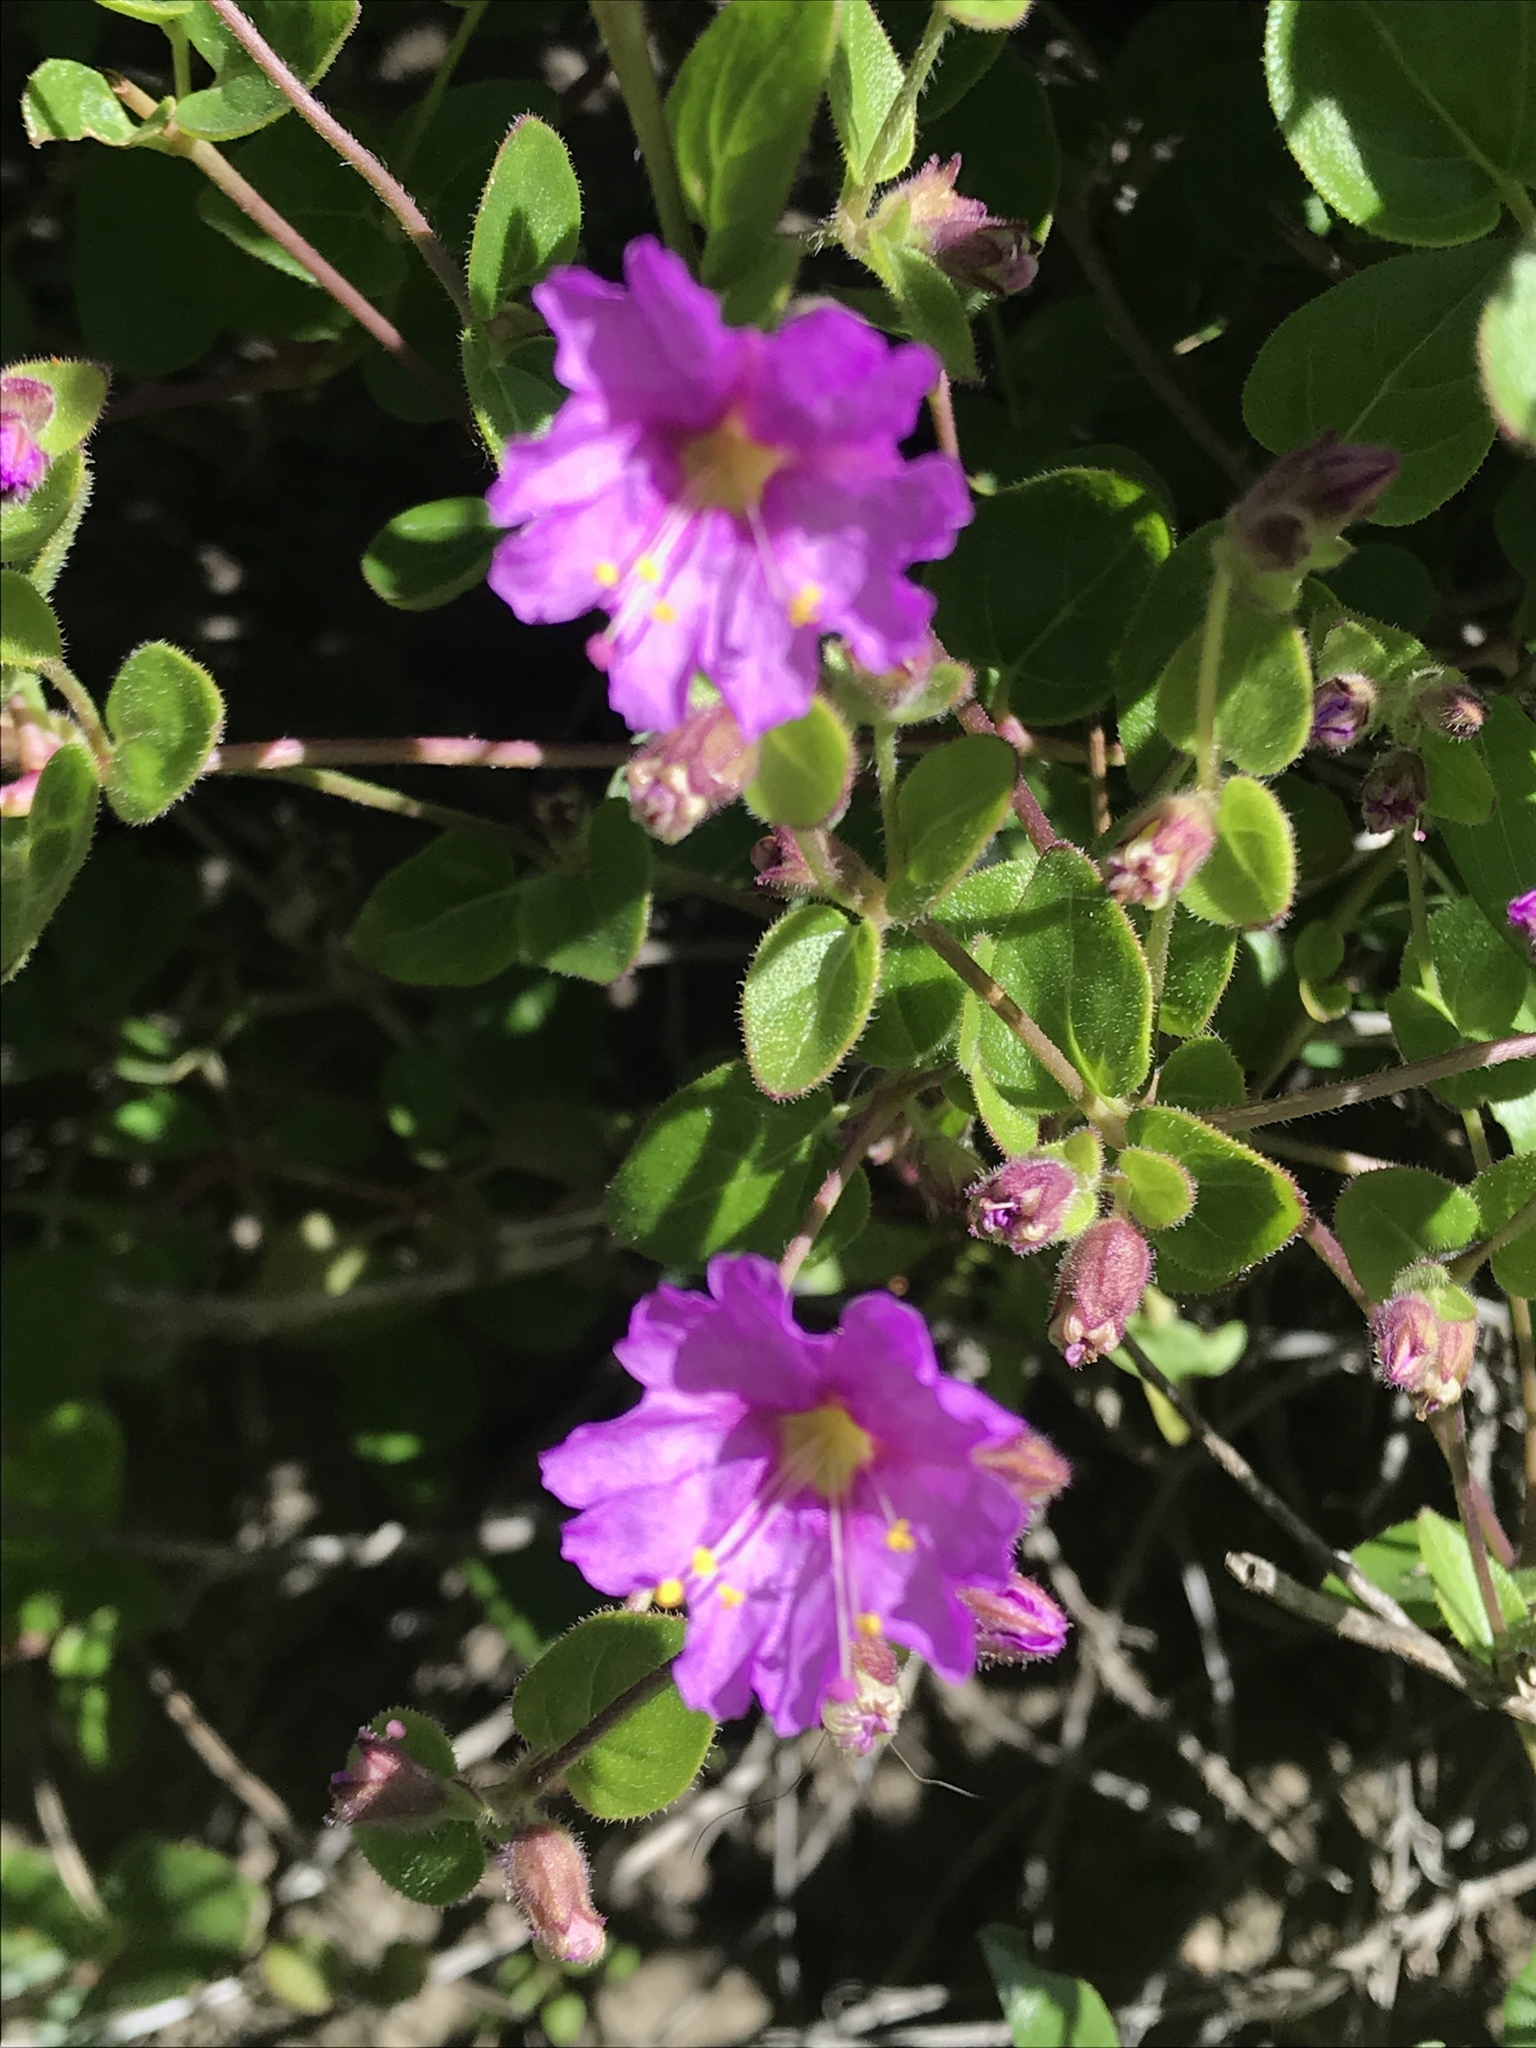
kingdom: Plantae
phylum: Tracheophyta
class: Magnoliopsida
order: Caryophyllales
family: Nyctaginaceae
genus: Mirabilis
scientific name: Mirabilis laevis
